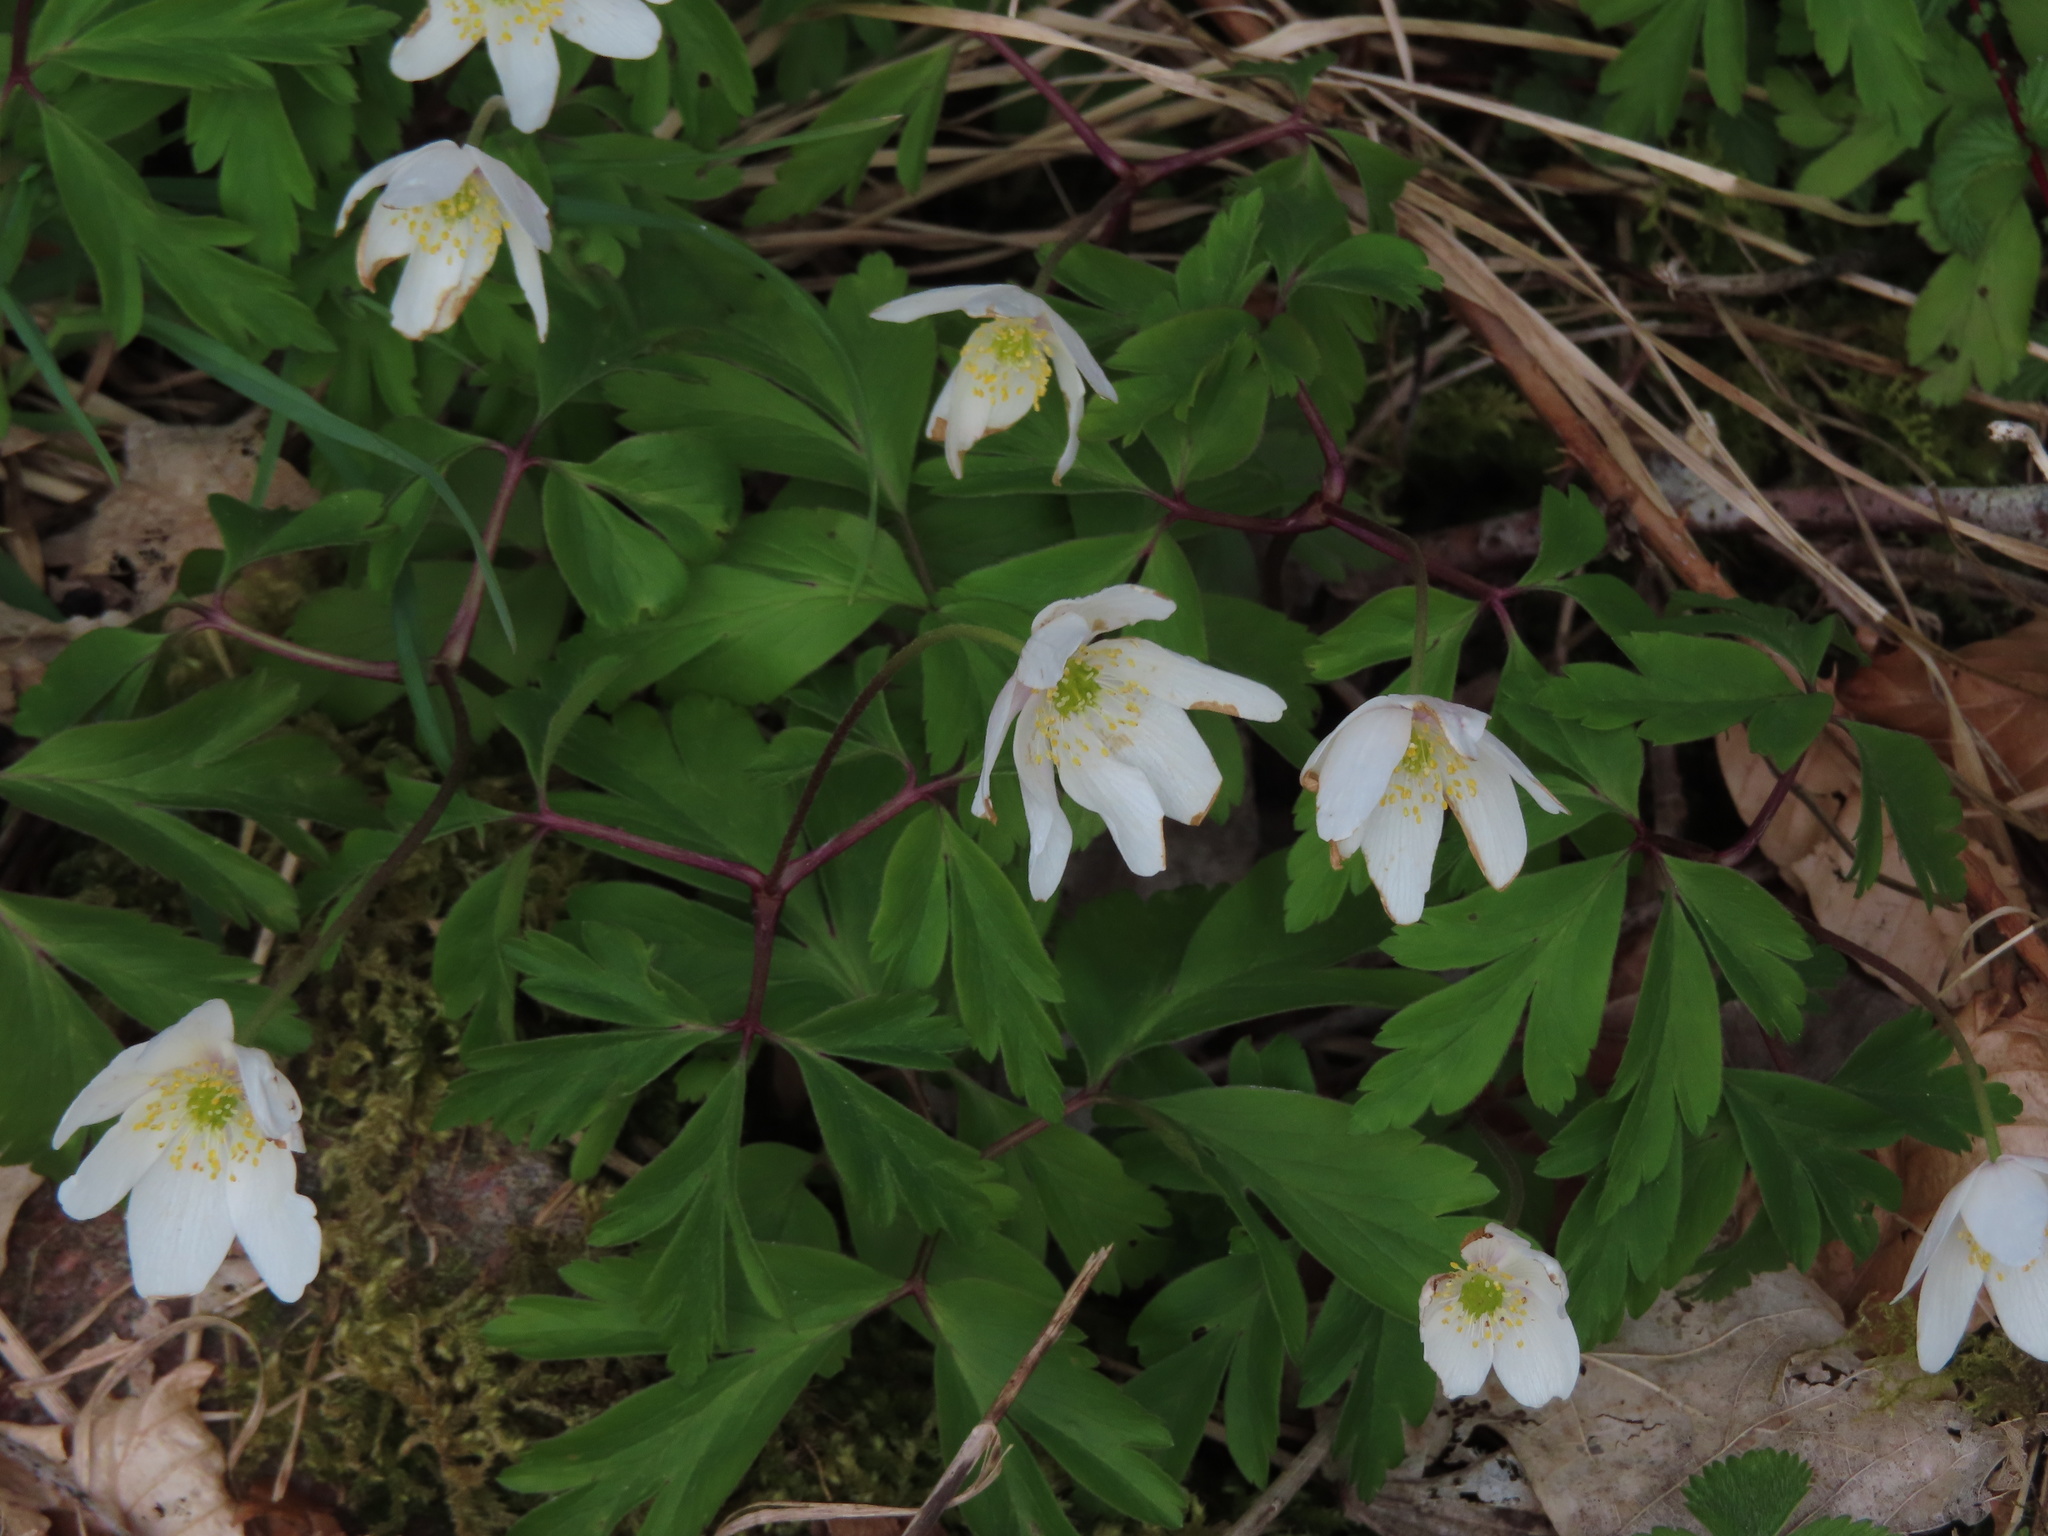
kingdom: Plantae
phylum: Tracheophyta
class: Magnoliopsida
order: Ranunculales
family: Ranunculaceae
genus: Anemone
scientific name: Anemone nemorosa
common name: Wood anemone
